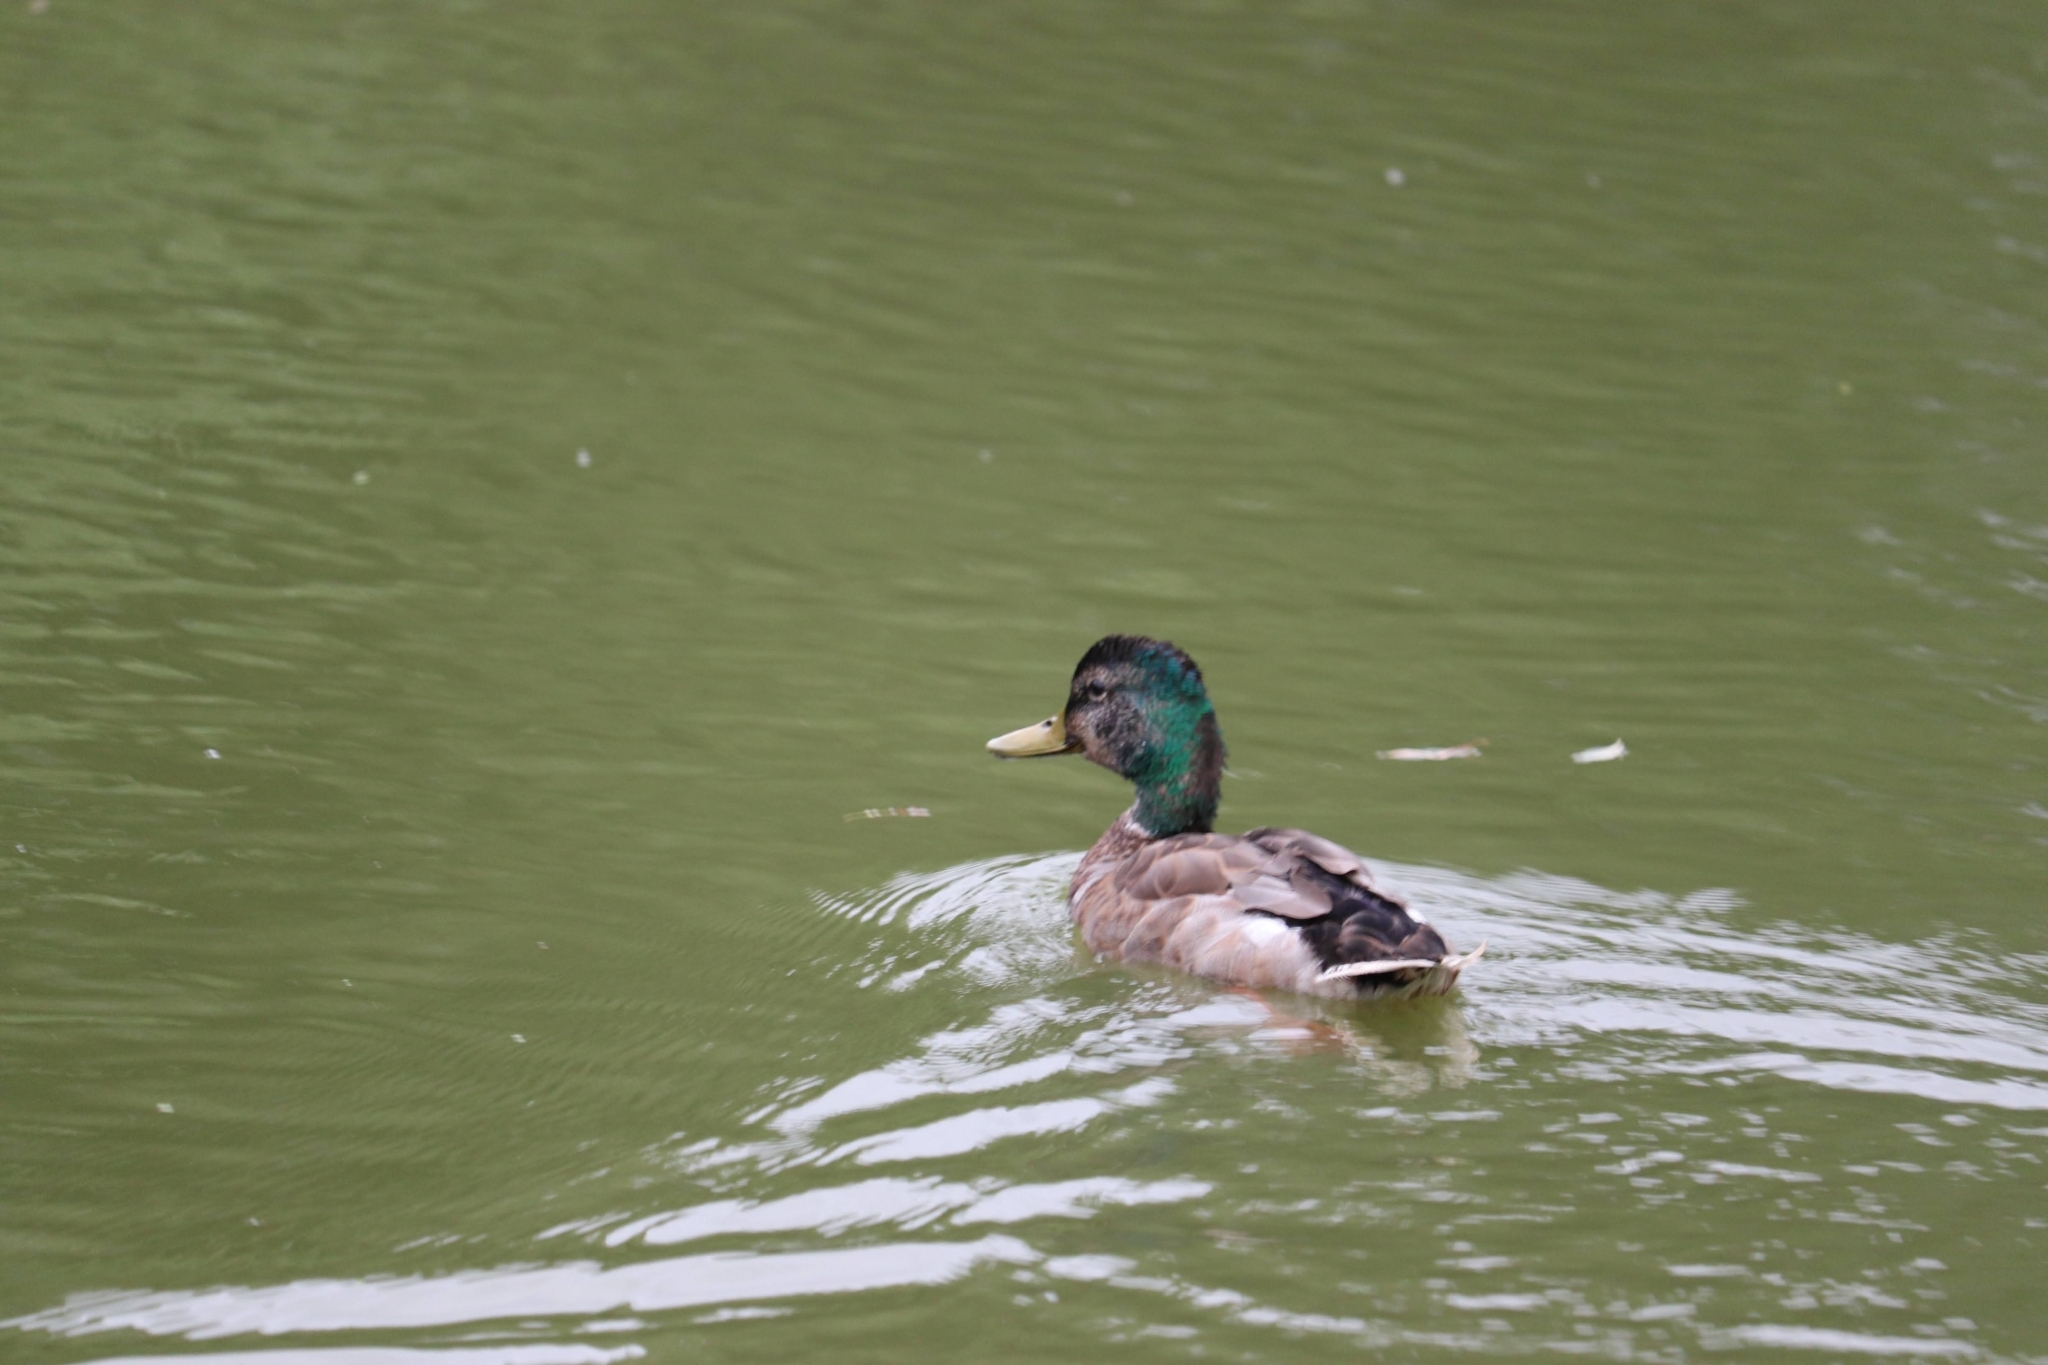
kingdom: Animalia
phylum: Chordata
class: Aves
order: Anseriformes
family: Anatidae
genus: Anas
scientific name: Anas platyrhynchos
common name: Mallard
